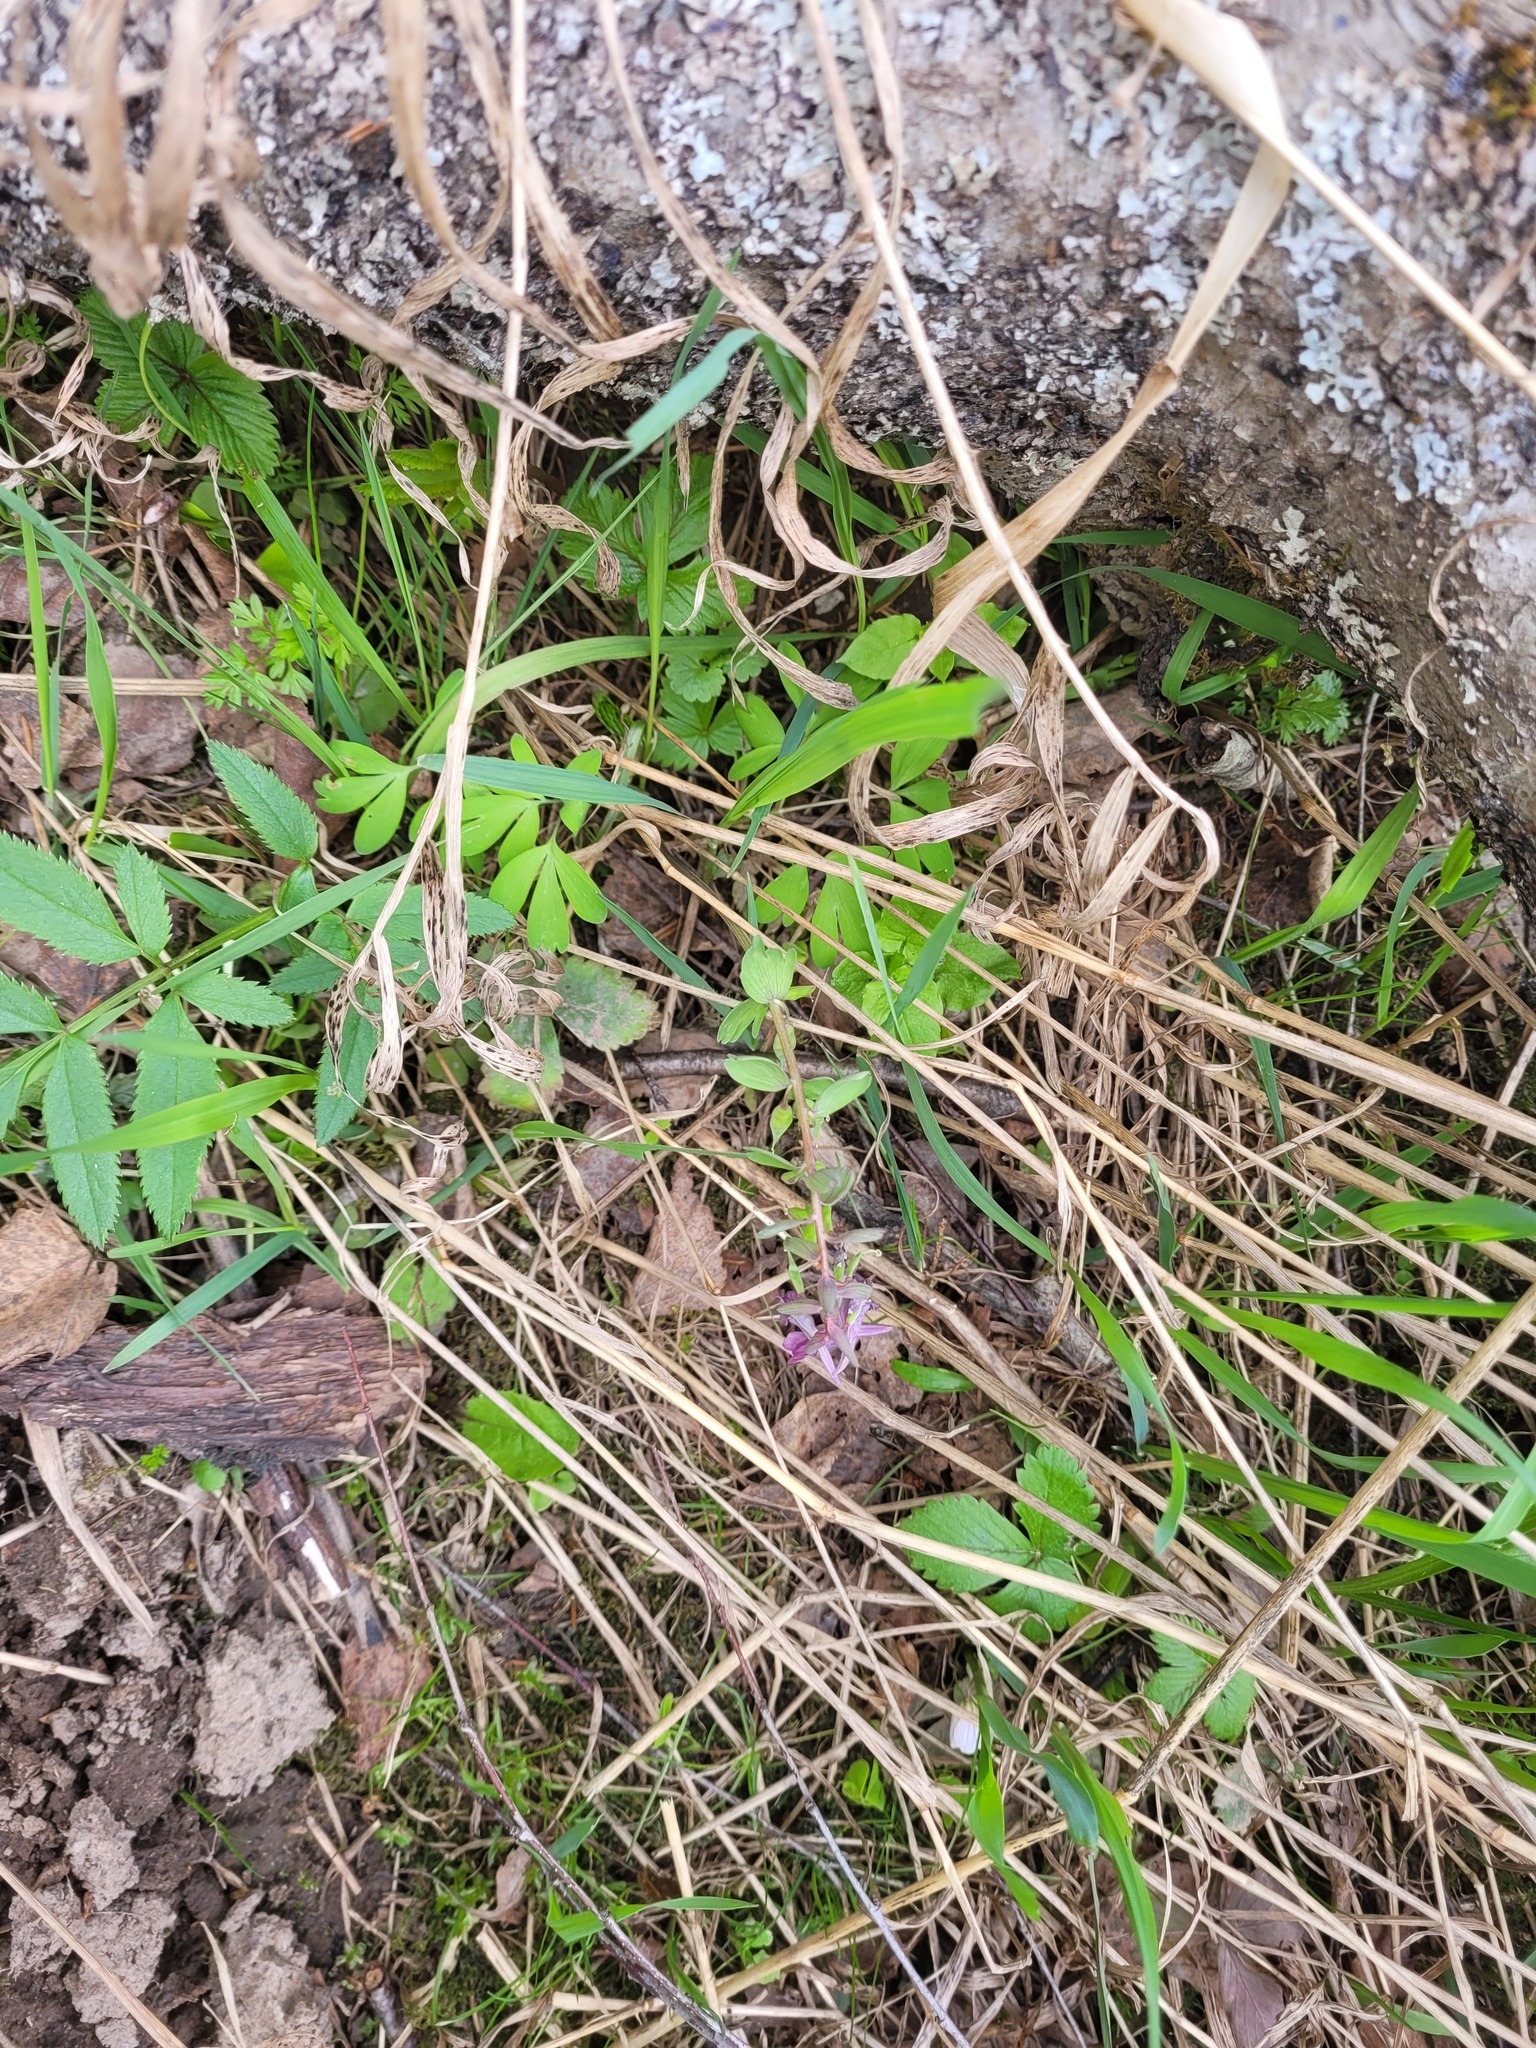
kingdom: Plantae
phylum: Tracheophyta
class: Magnoliopsida
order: Ranunculales
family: Papaveraceae
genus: Corydalis
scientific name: Corydalis solida
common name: Bird-in-a-bush
